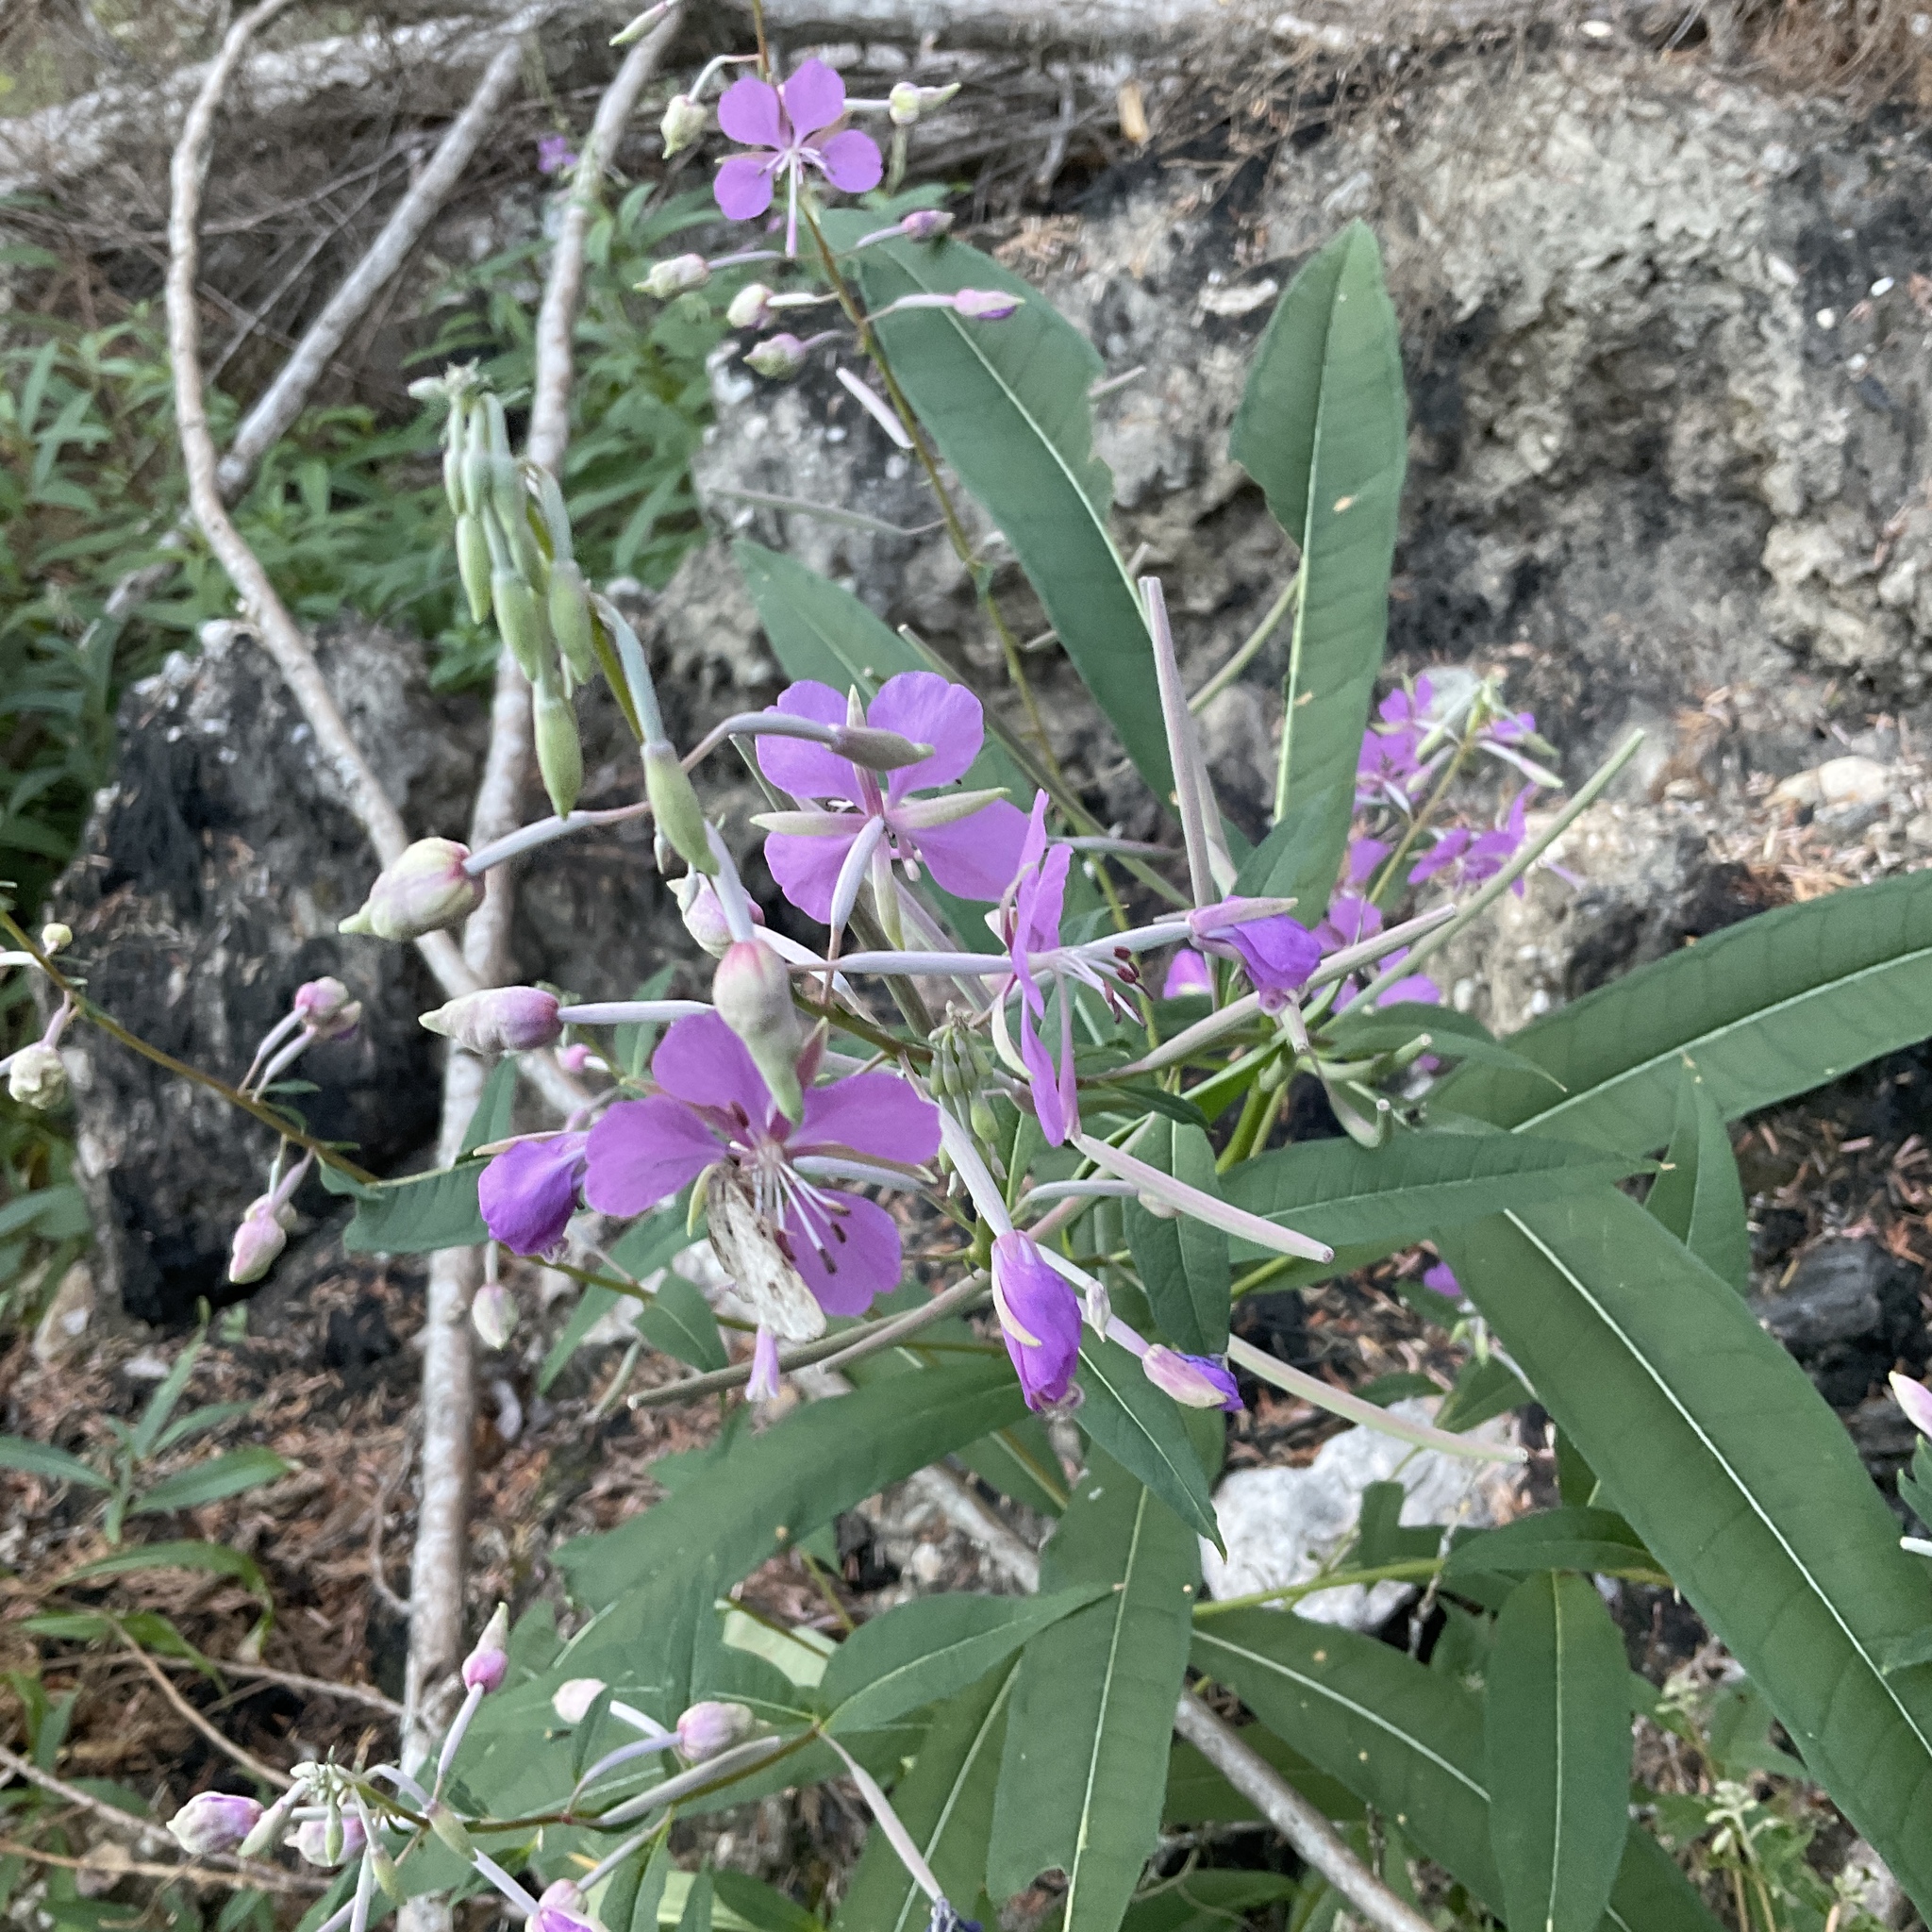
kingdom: Plantae
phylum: Tracheophyta
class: Magnoliopsida
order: Myrtales
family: Onagraceae
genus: Chamaenerion
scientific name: Chamaenerion angustifolium
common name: Fireweed
